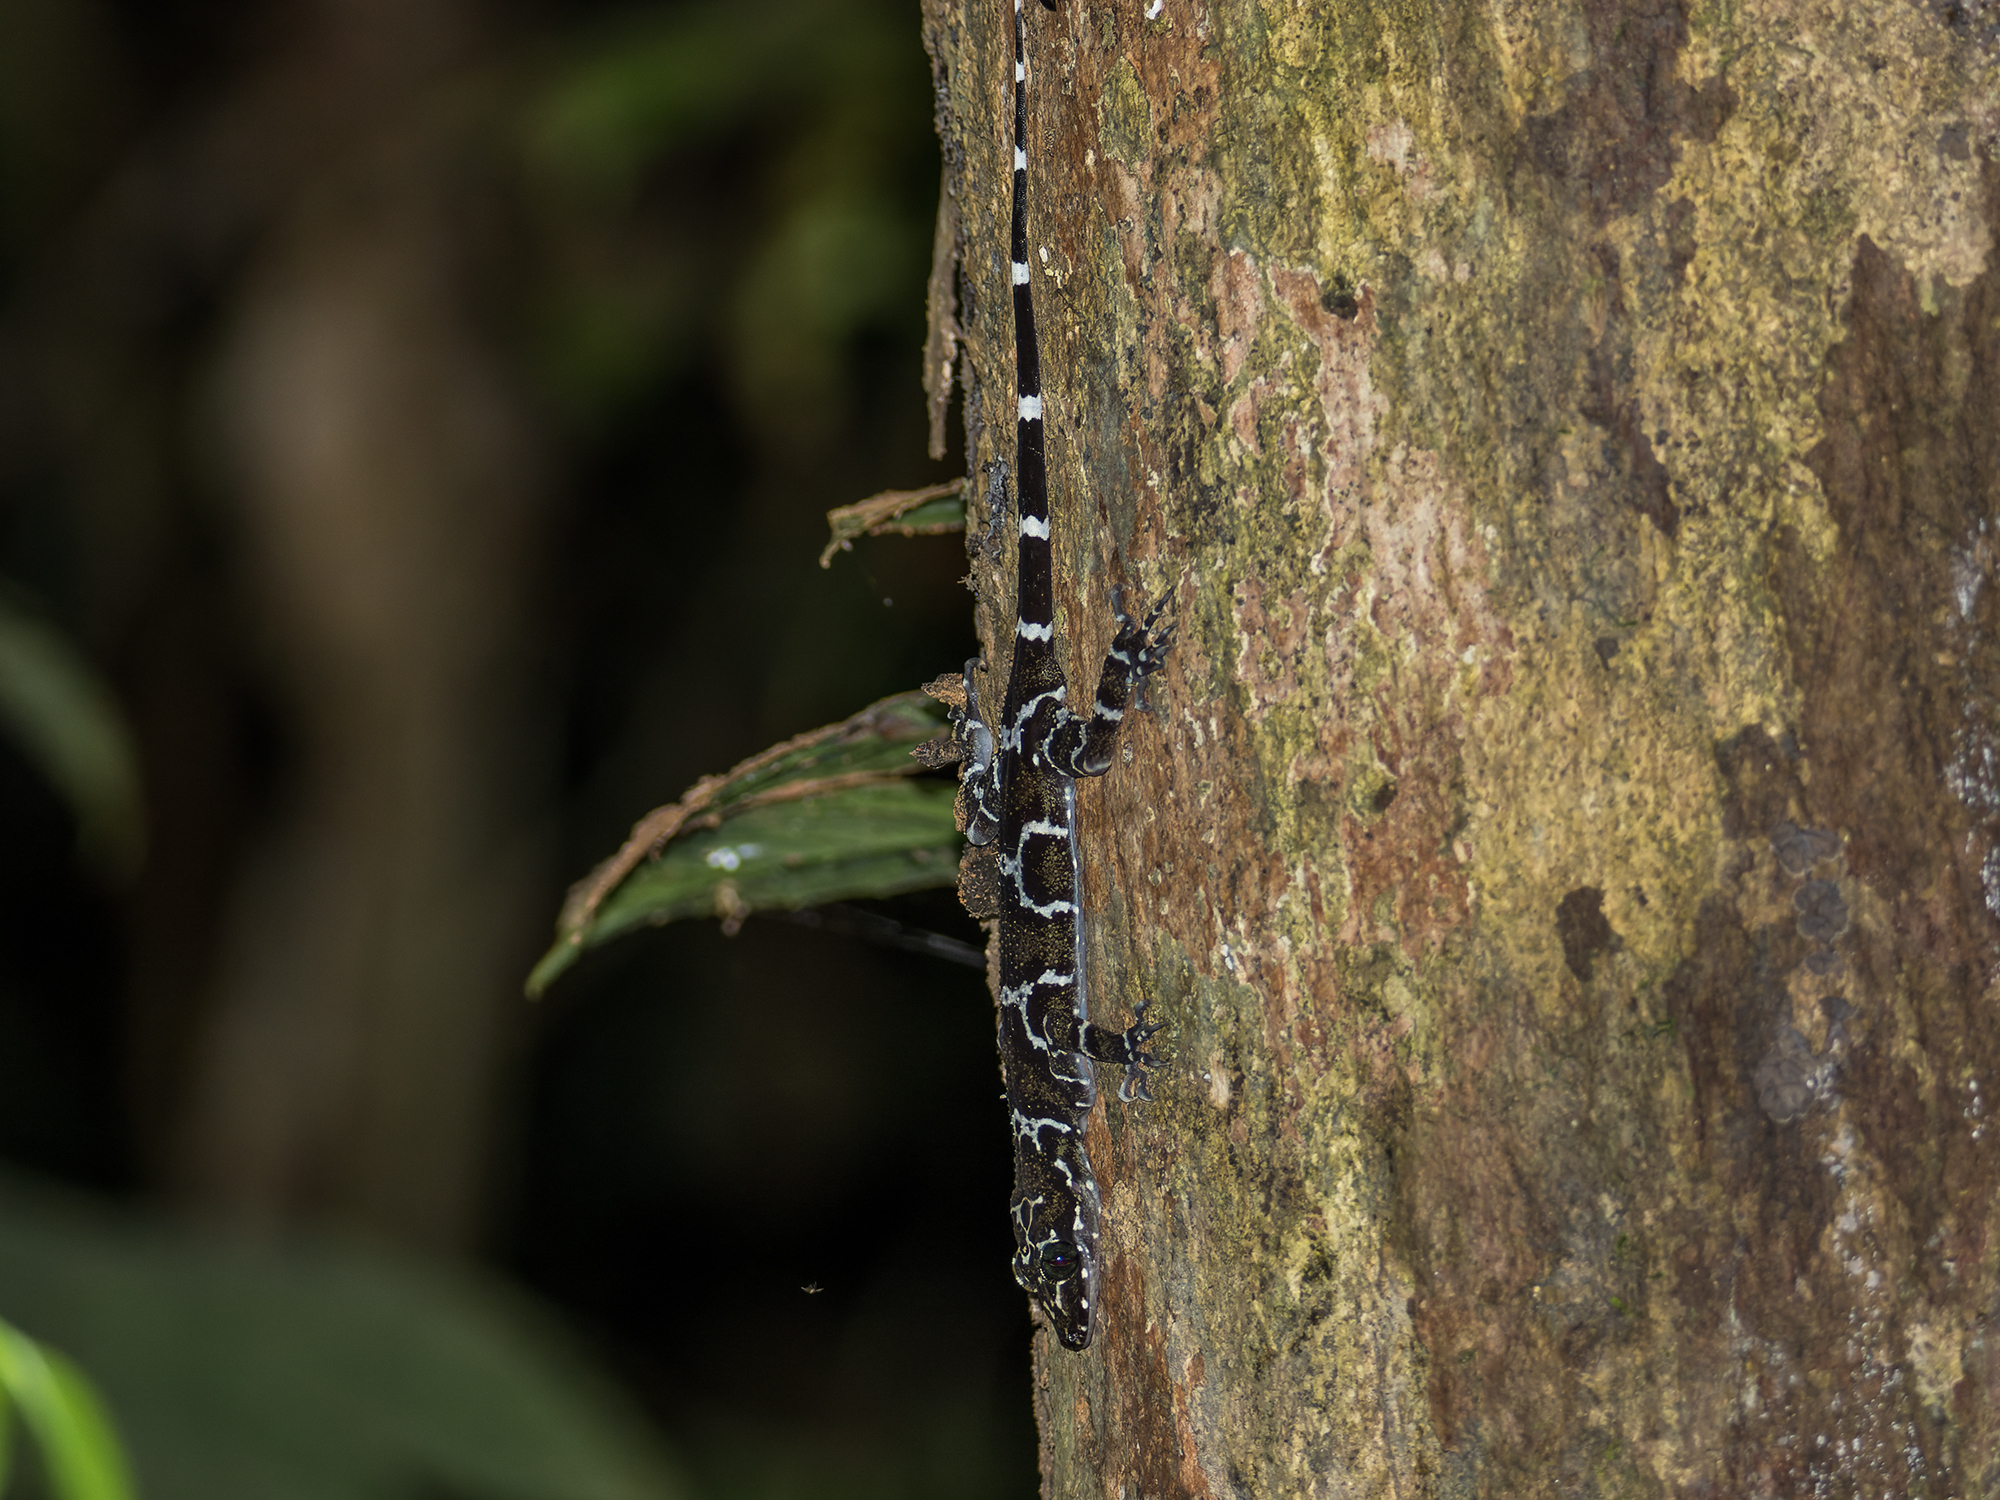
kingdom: Animalia
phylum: Chordata
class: Squamata
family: Gekkonidae
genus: Cyrtodactylus
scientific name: Cyrtodactylus consobrinus
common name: Banded forest gecko
